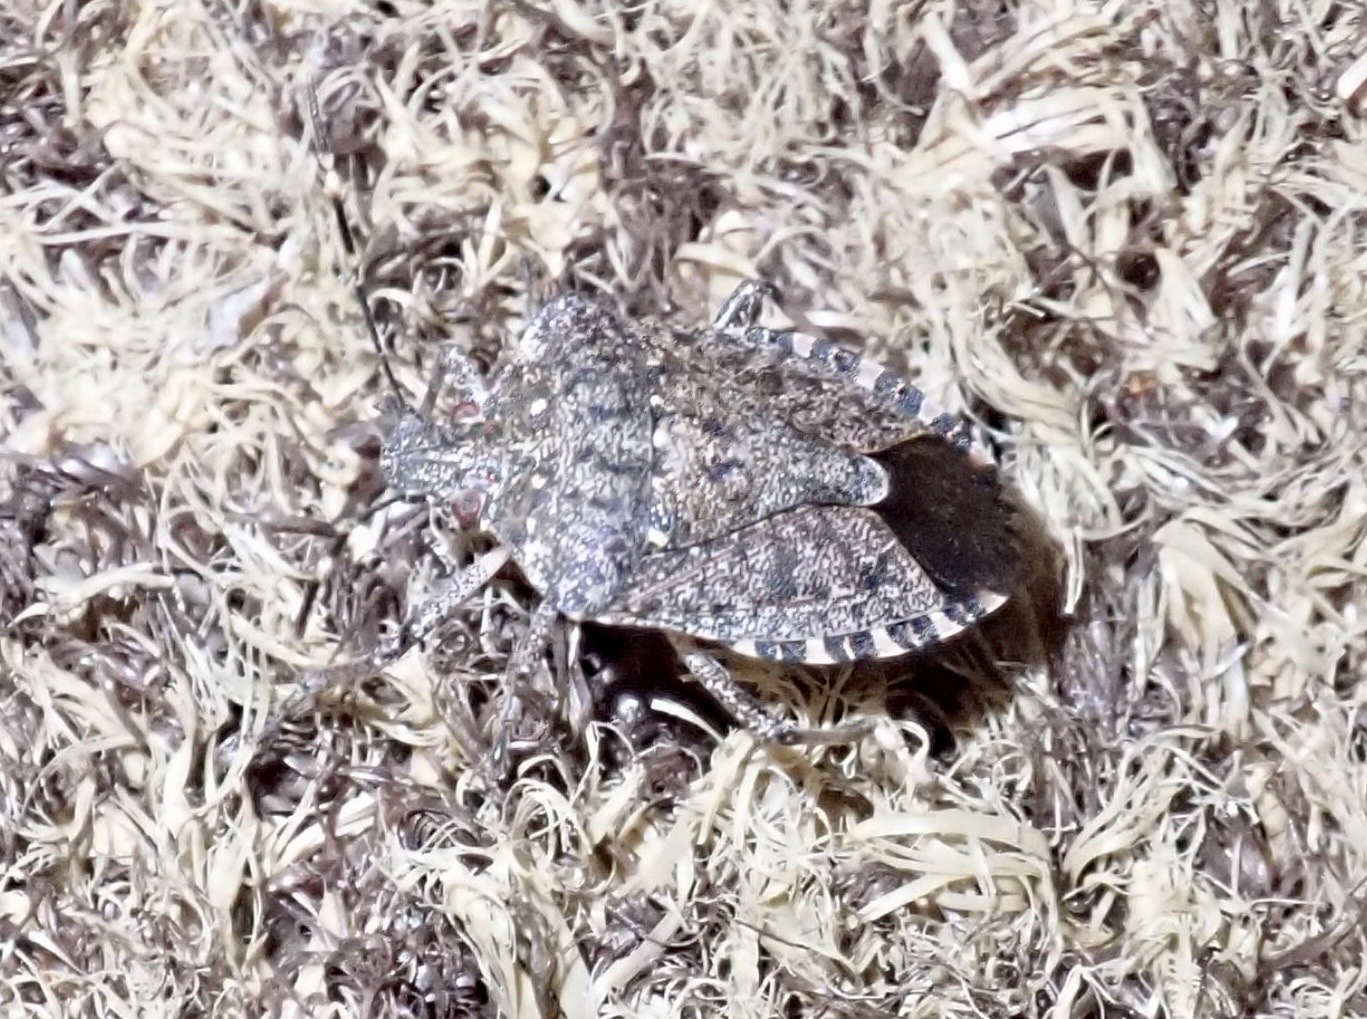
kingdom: Animalia
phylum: Arthropoda
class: Insecta
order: Hemiptera
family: Pentatomidae
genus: Halyomorpha
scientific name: Halyomorpha halys
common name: Brown marmorated stink bug
